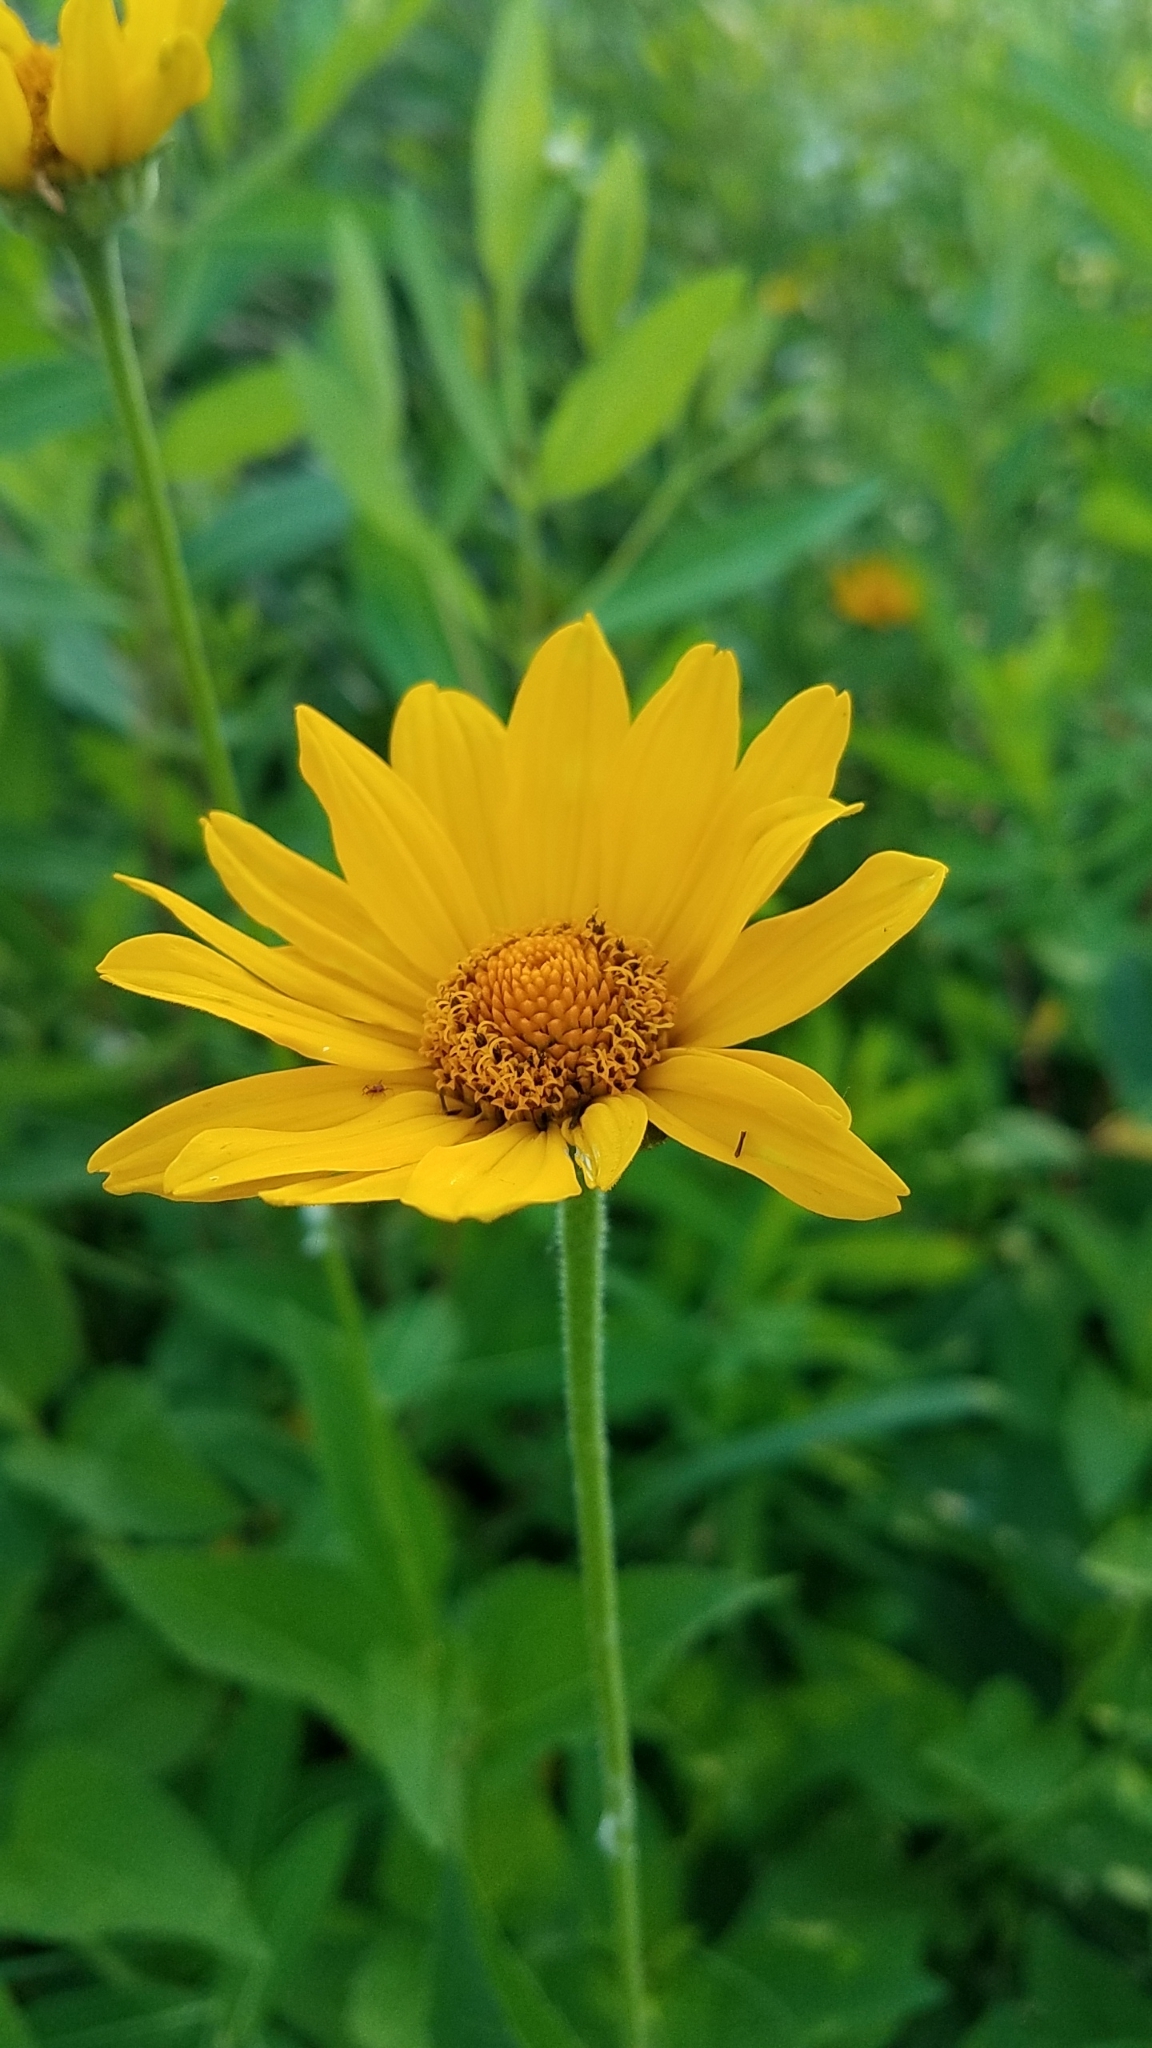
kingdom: Plantae
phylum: Tracheophyta
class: Magnoliopsida
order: Asterales
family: Asteraceae
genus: Heliopsis
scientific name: Heliopsis helianthoides
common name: False sunflower
